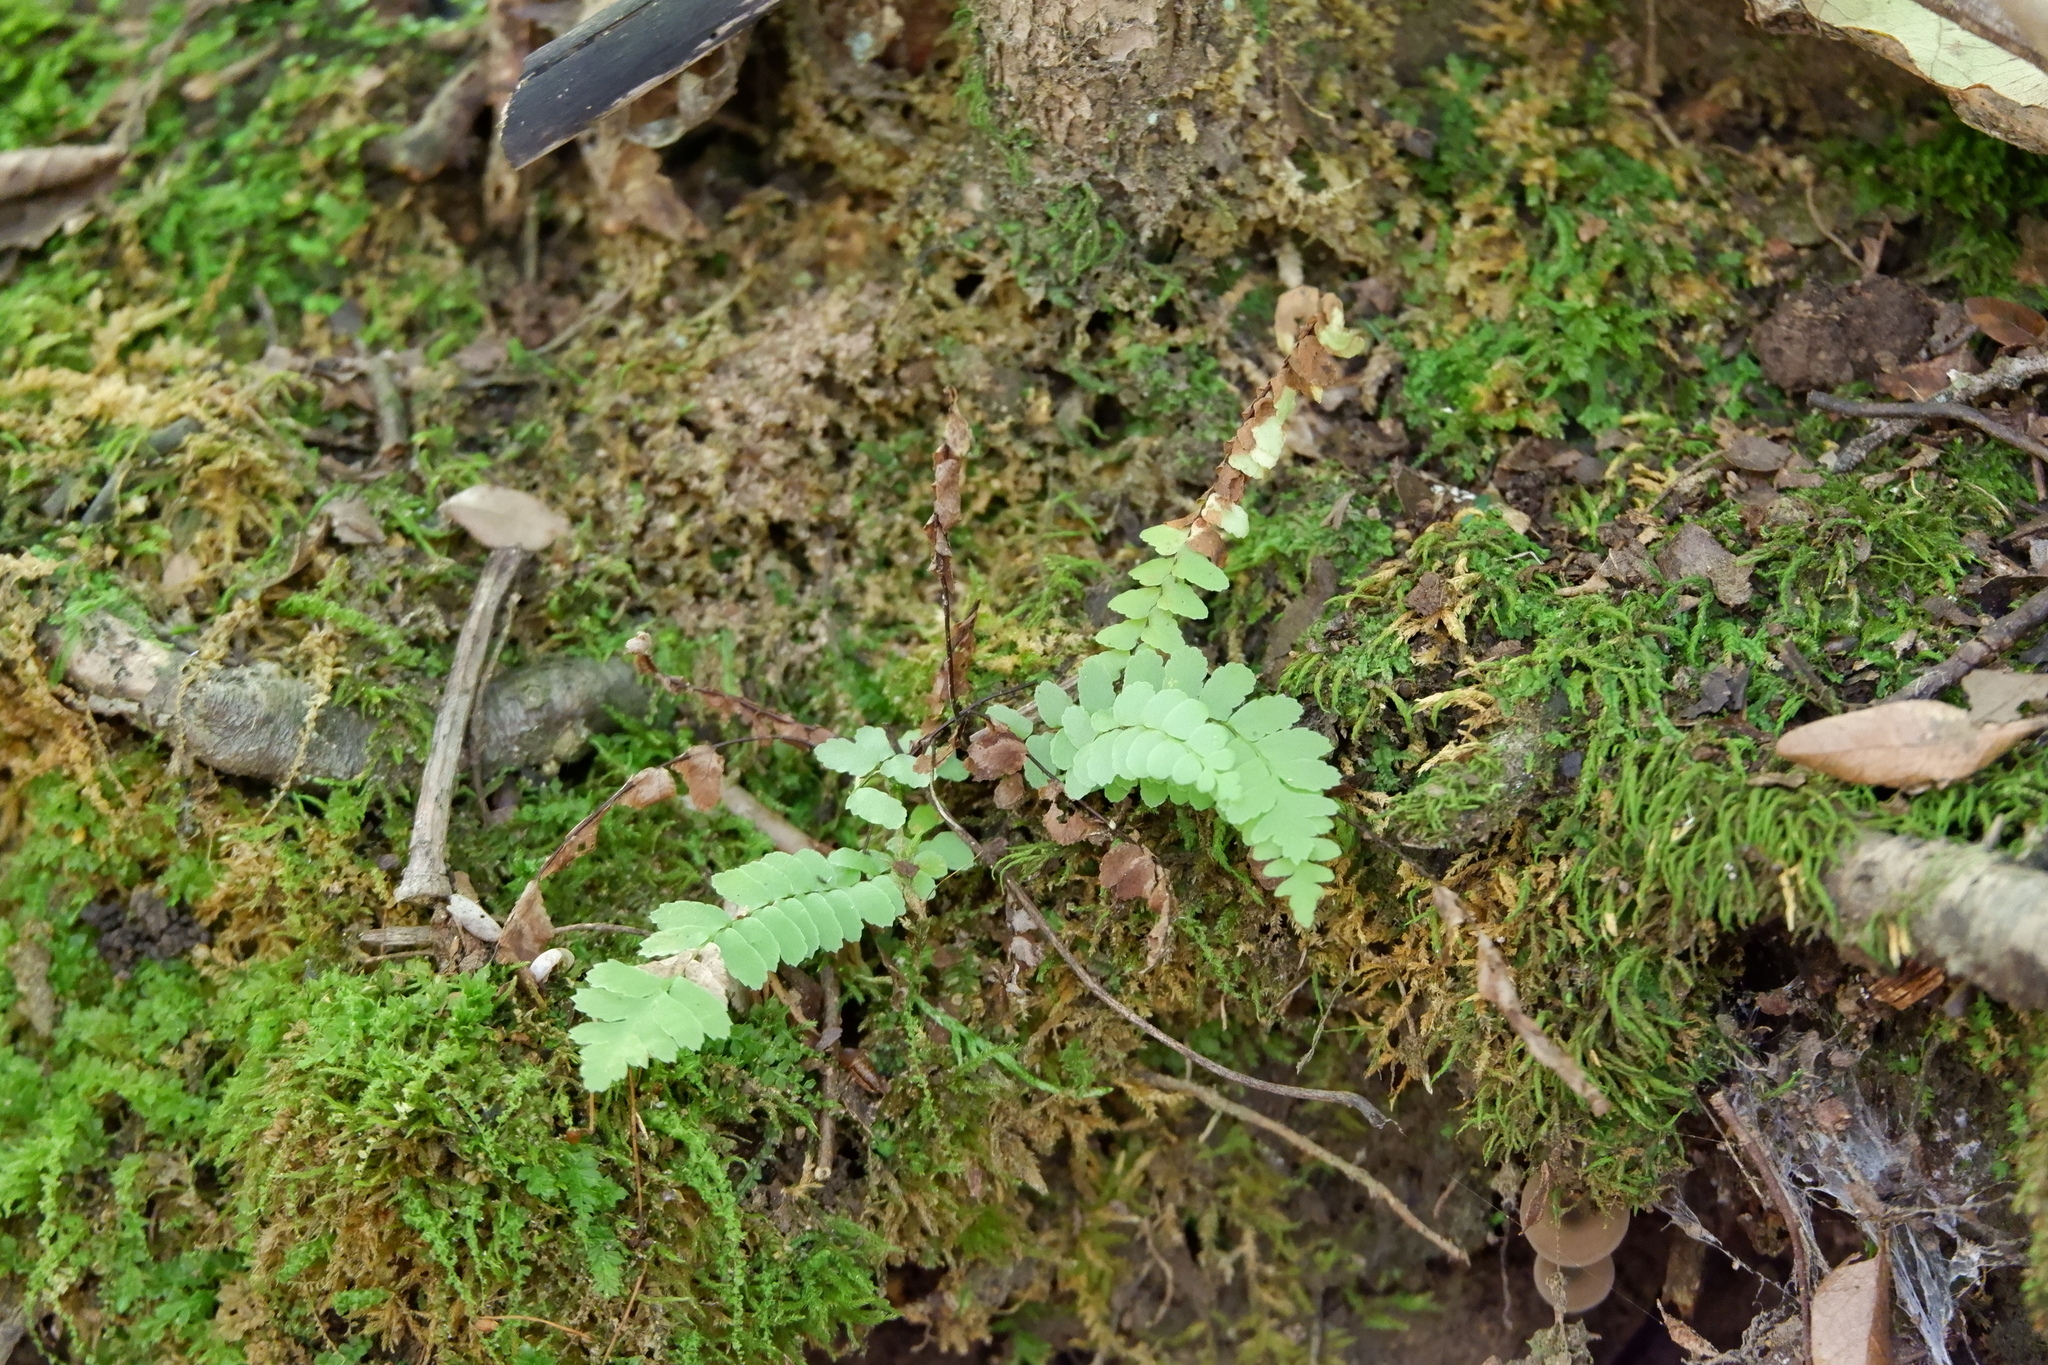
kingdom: Plantae
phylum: Tracheophyta
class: Polypodiopsida
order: Polypodiales
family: Aspleniaceae
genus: Asplenium
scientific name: Asplenium platyneuron
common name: Ebony spleenwort
